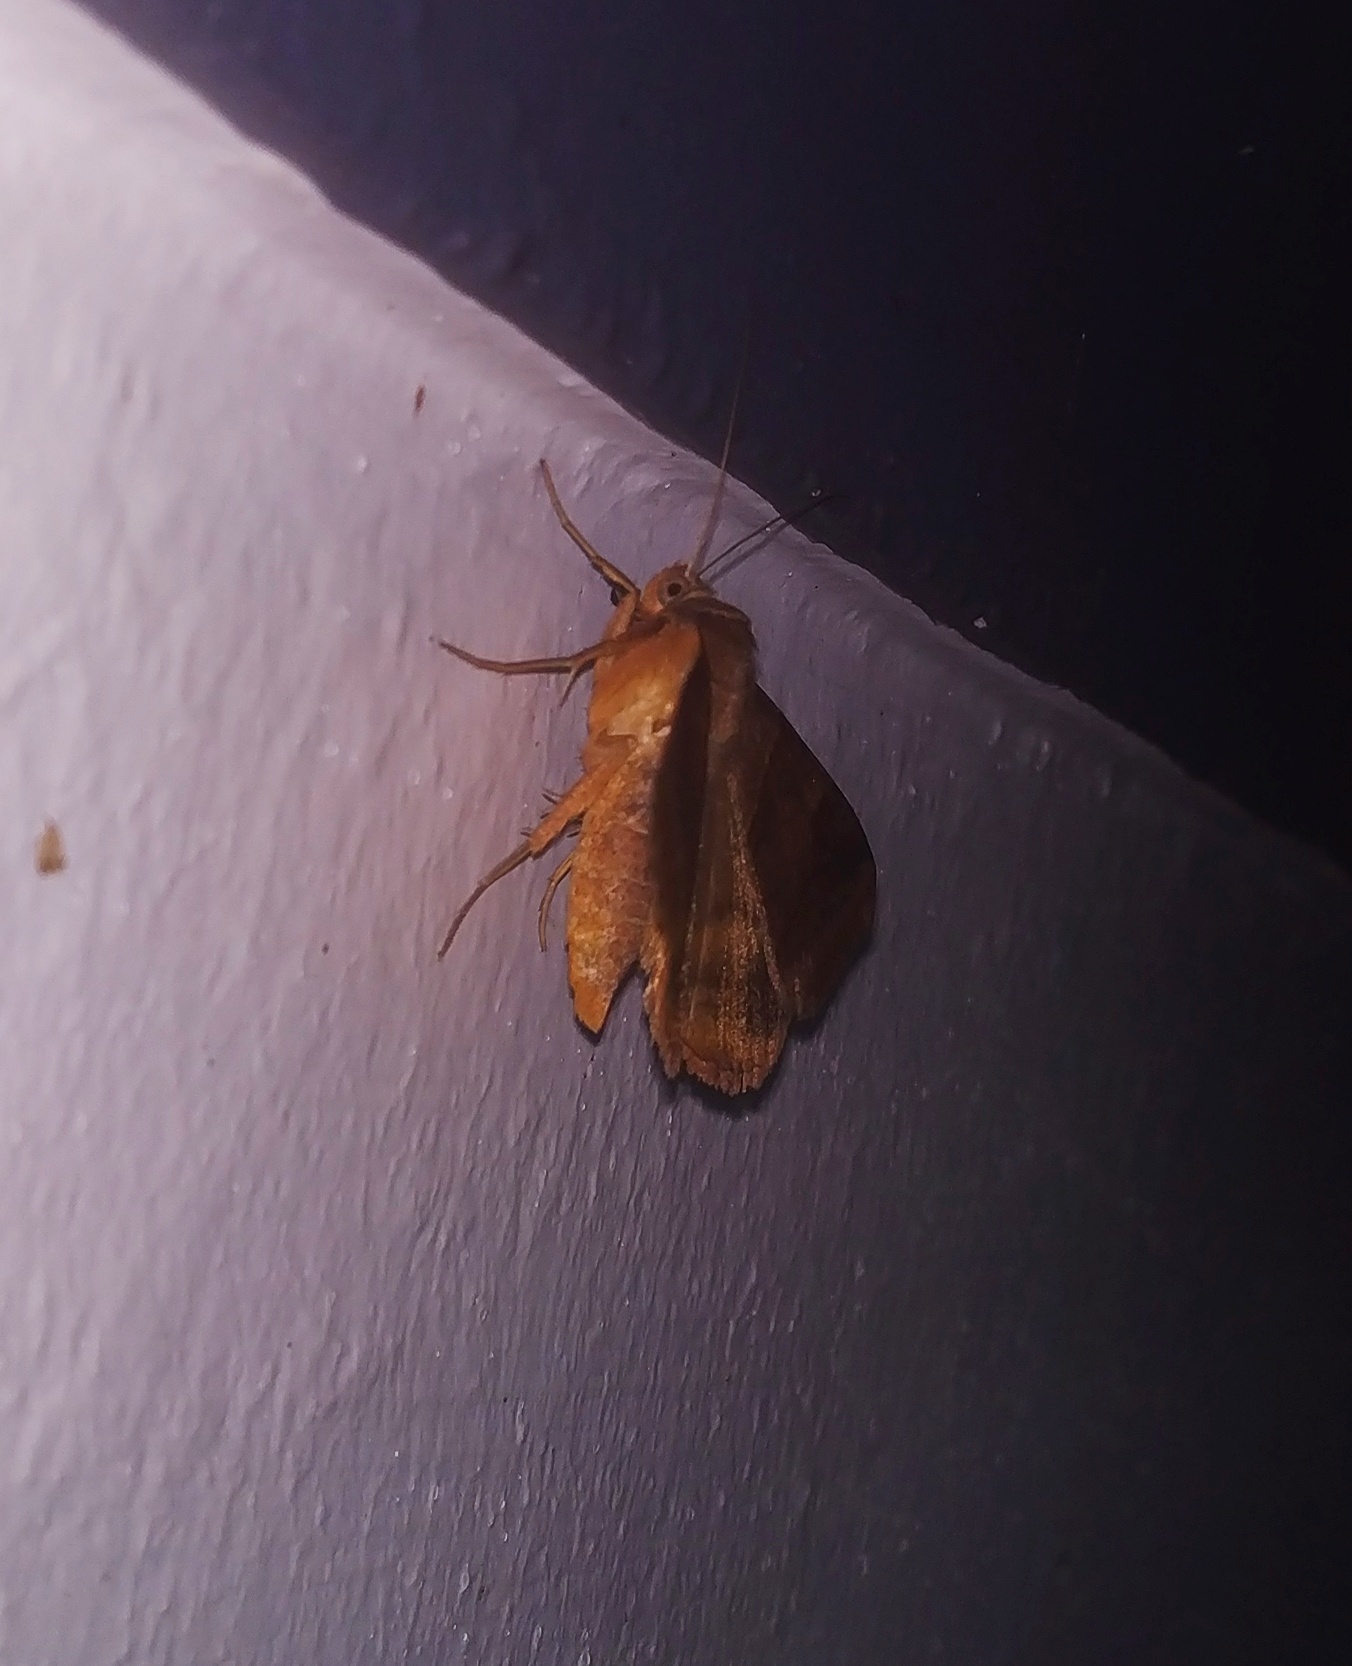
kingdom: Animalia
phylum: Arthropoda
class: Insecta
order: Lepidoptera
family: Erebidae
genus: Mocis
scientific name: Mocis undata
